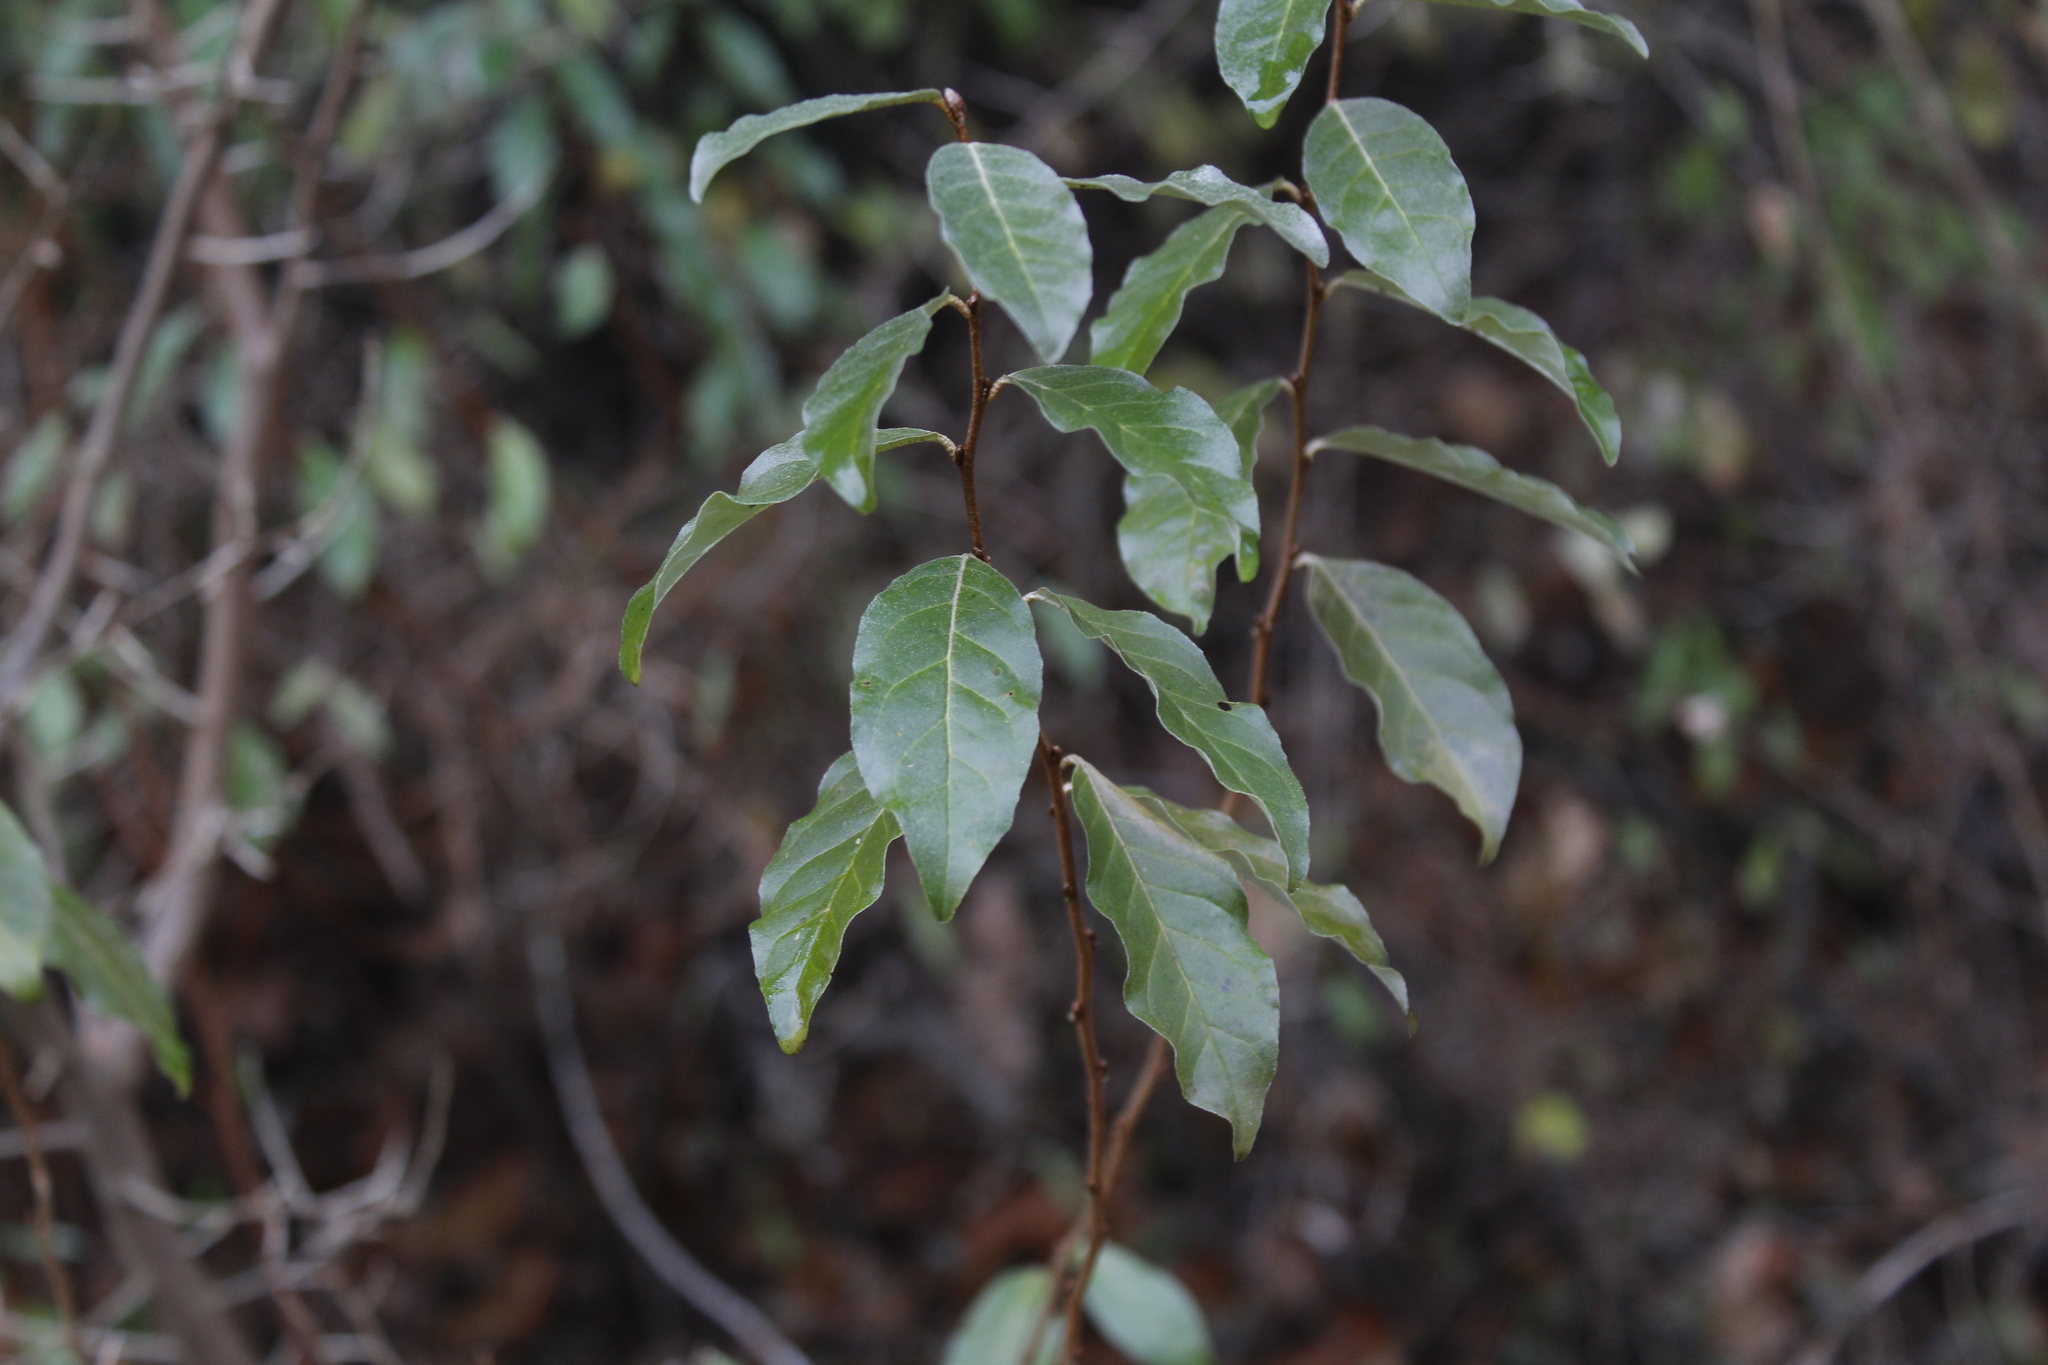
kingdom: Plantae
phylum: Tracheophyta
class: Magnoliopsida
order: Rosales
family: Elaeagnaceae
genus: Elaeagnus
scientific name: Elaeagnus umbellata
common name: Autumn olive
